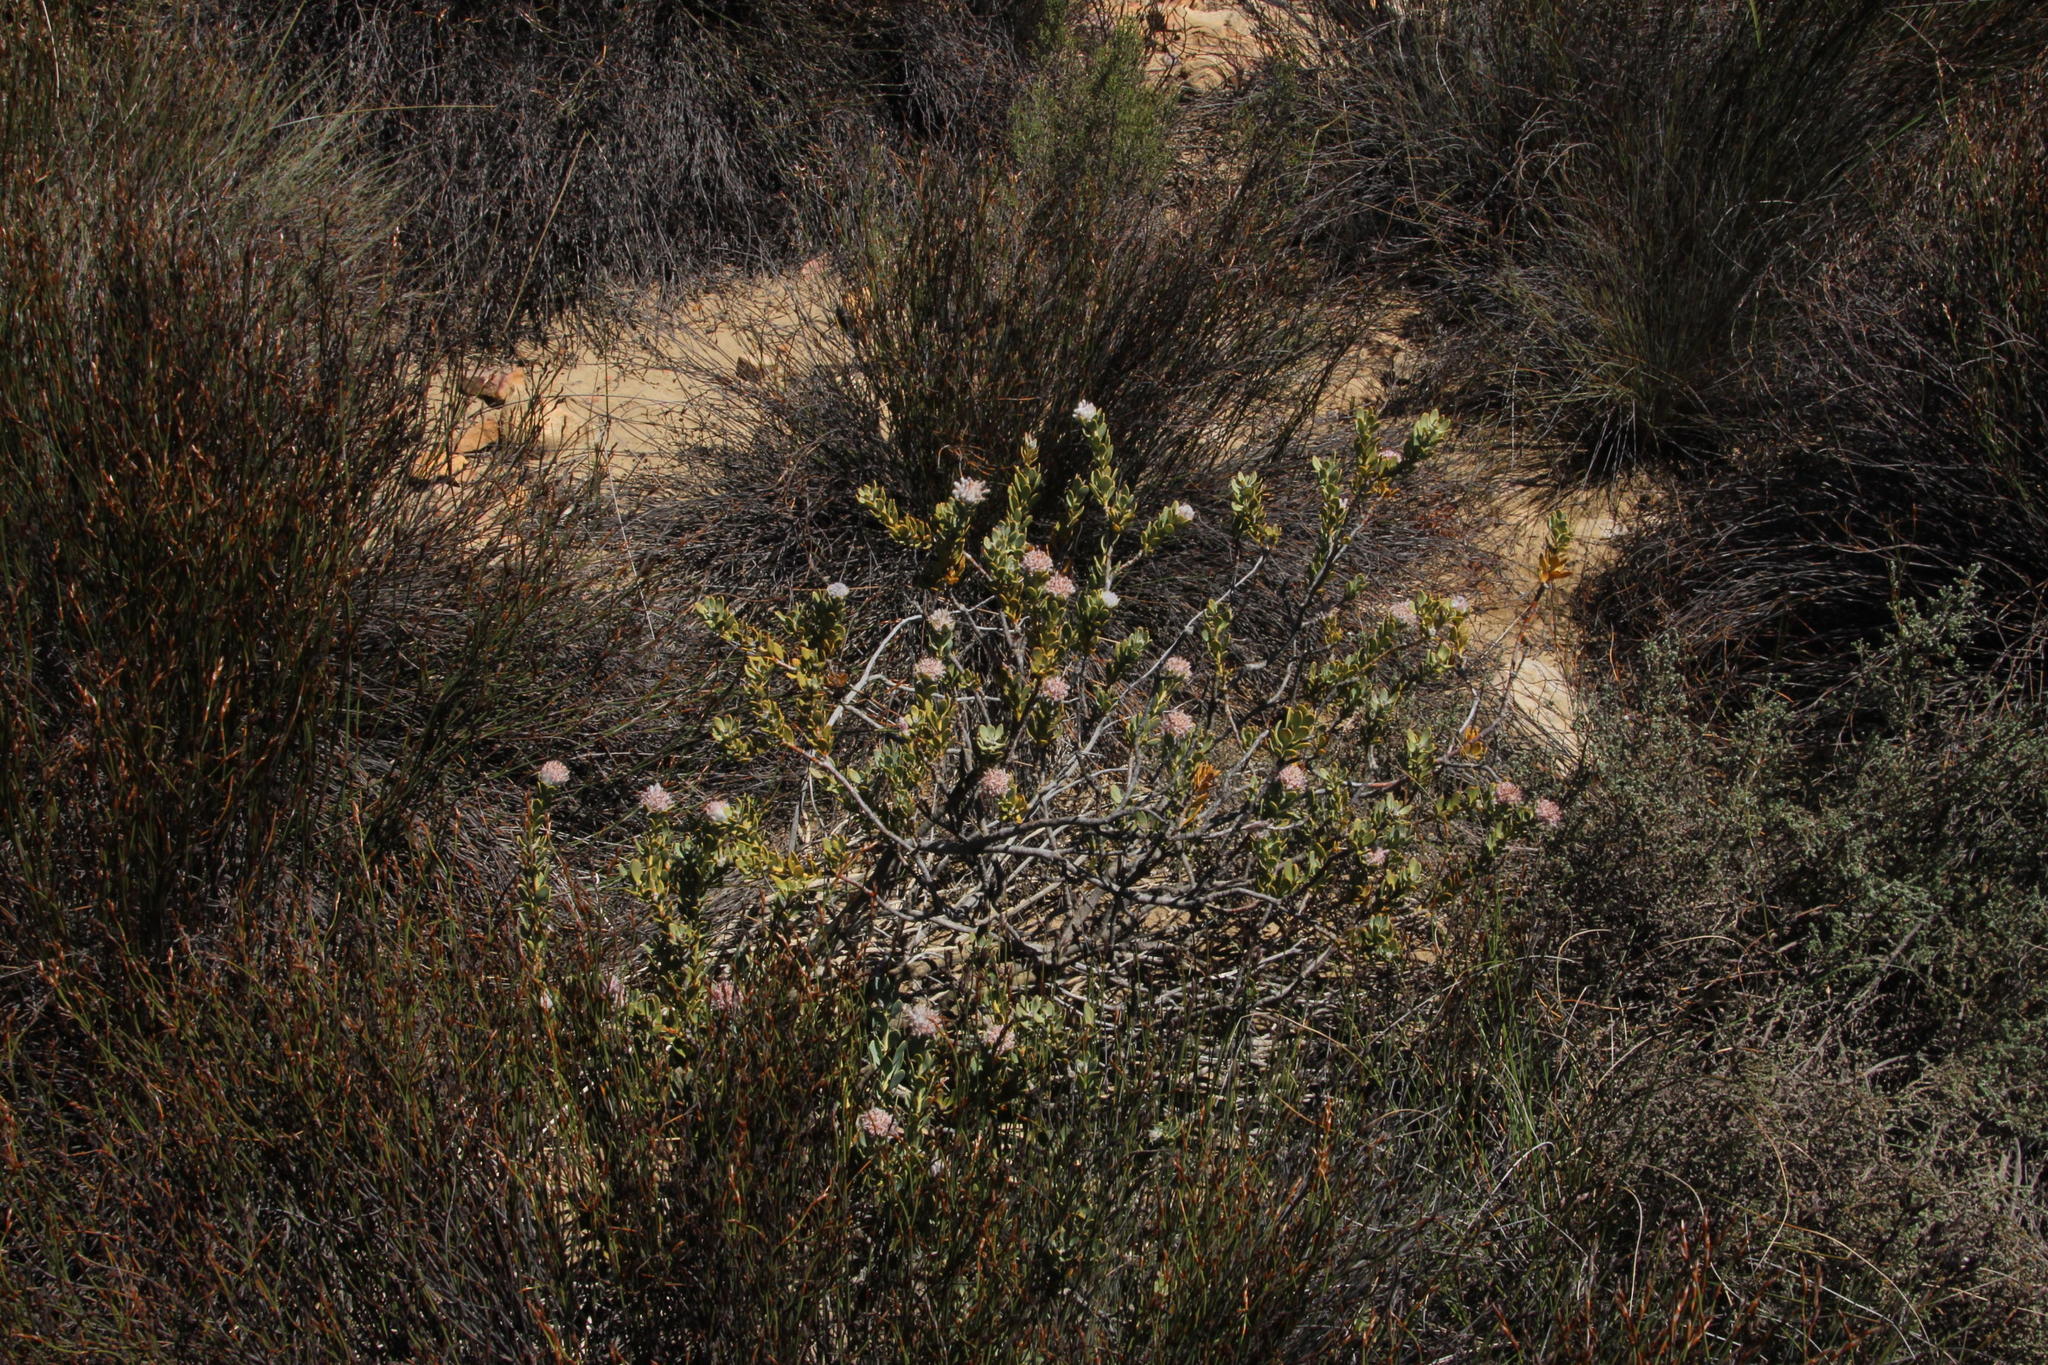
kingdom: Plantae
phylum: Tracheophyta
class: Magnoliopsida
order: Proteales
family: Proteaceae
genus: Vexatorella
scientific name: Vexatorella amoena
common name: Swartruggens vexator
